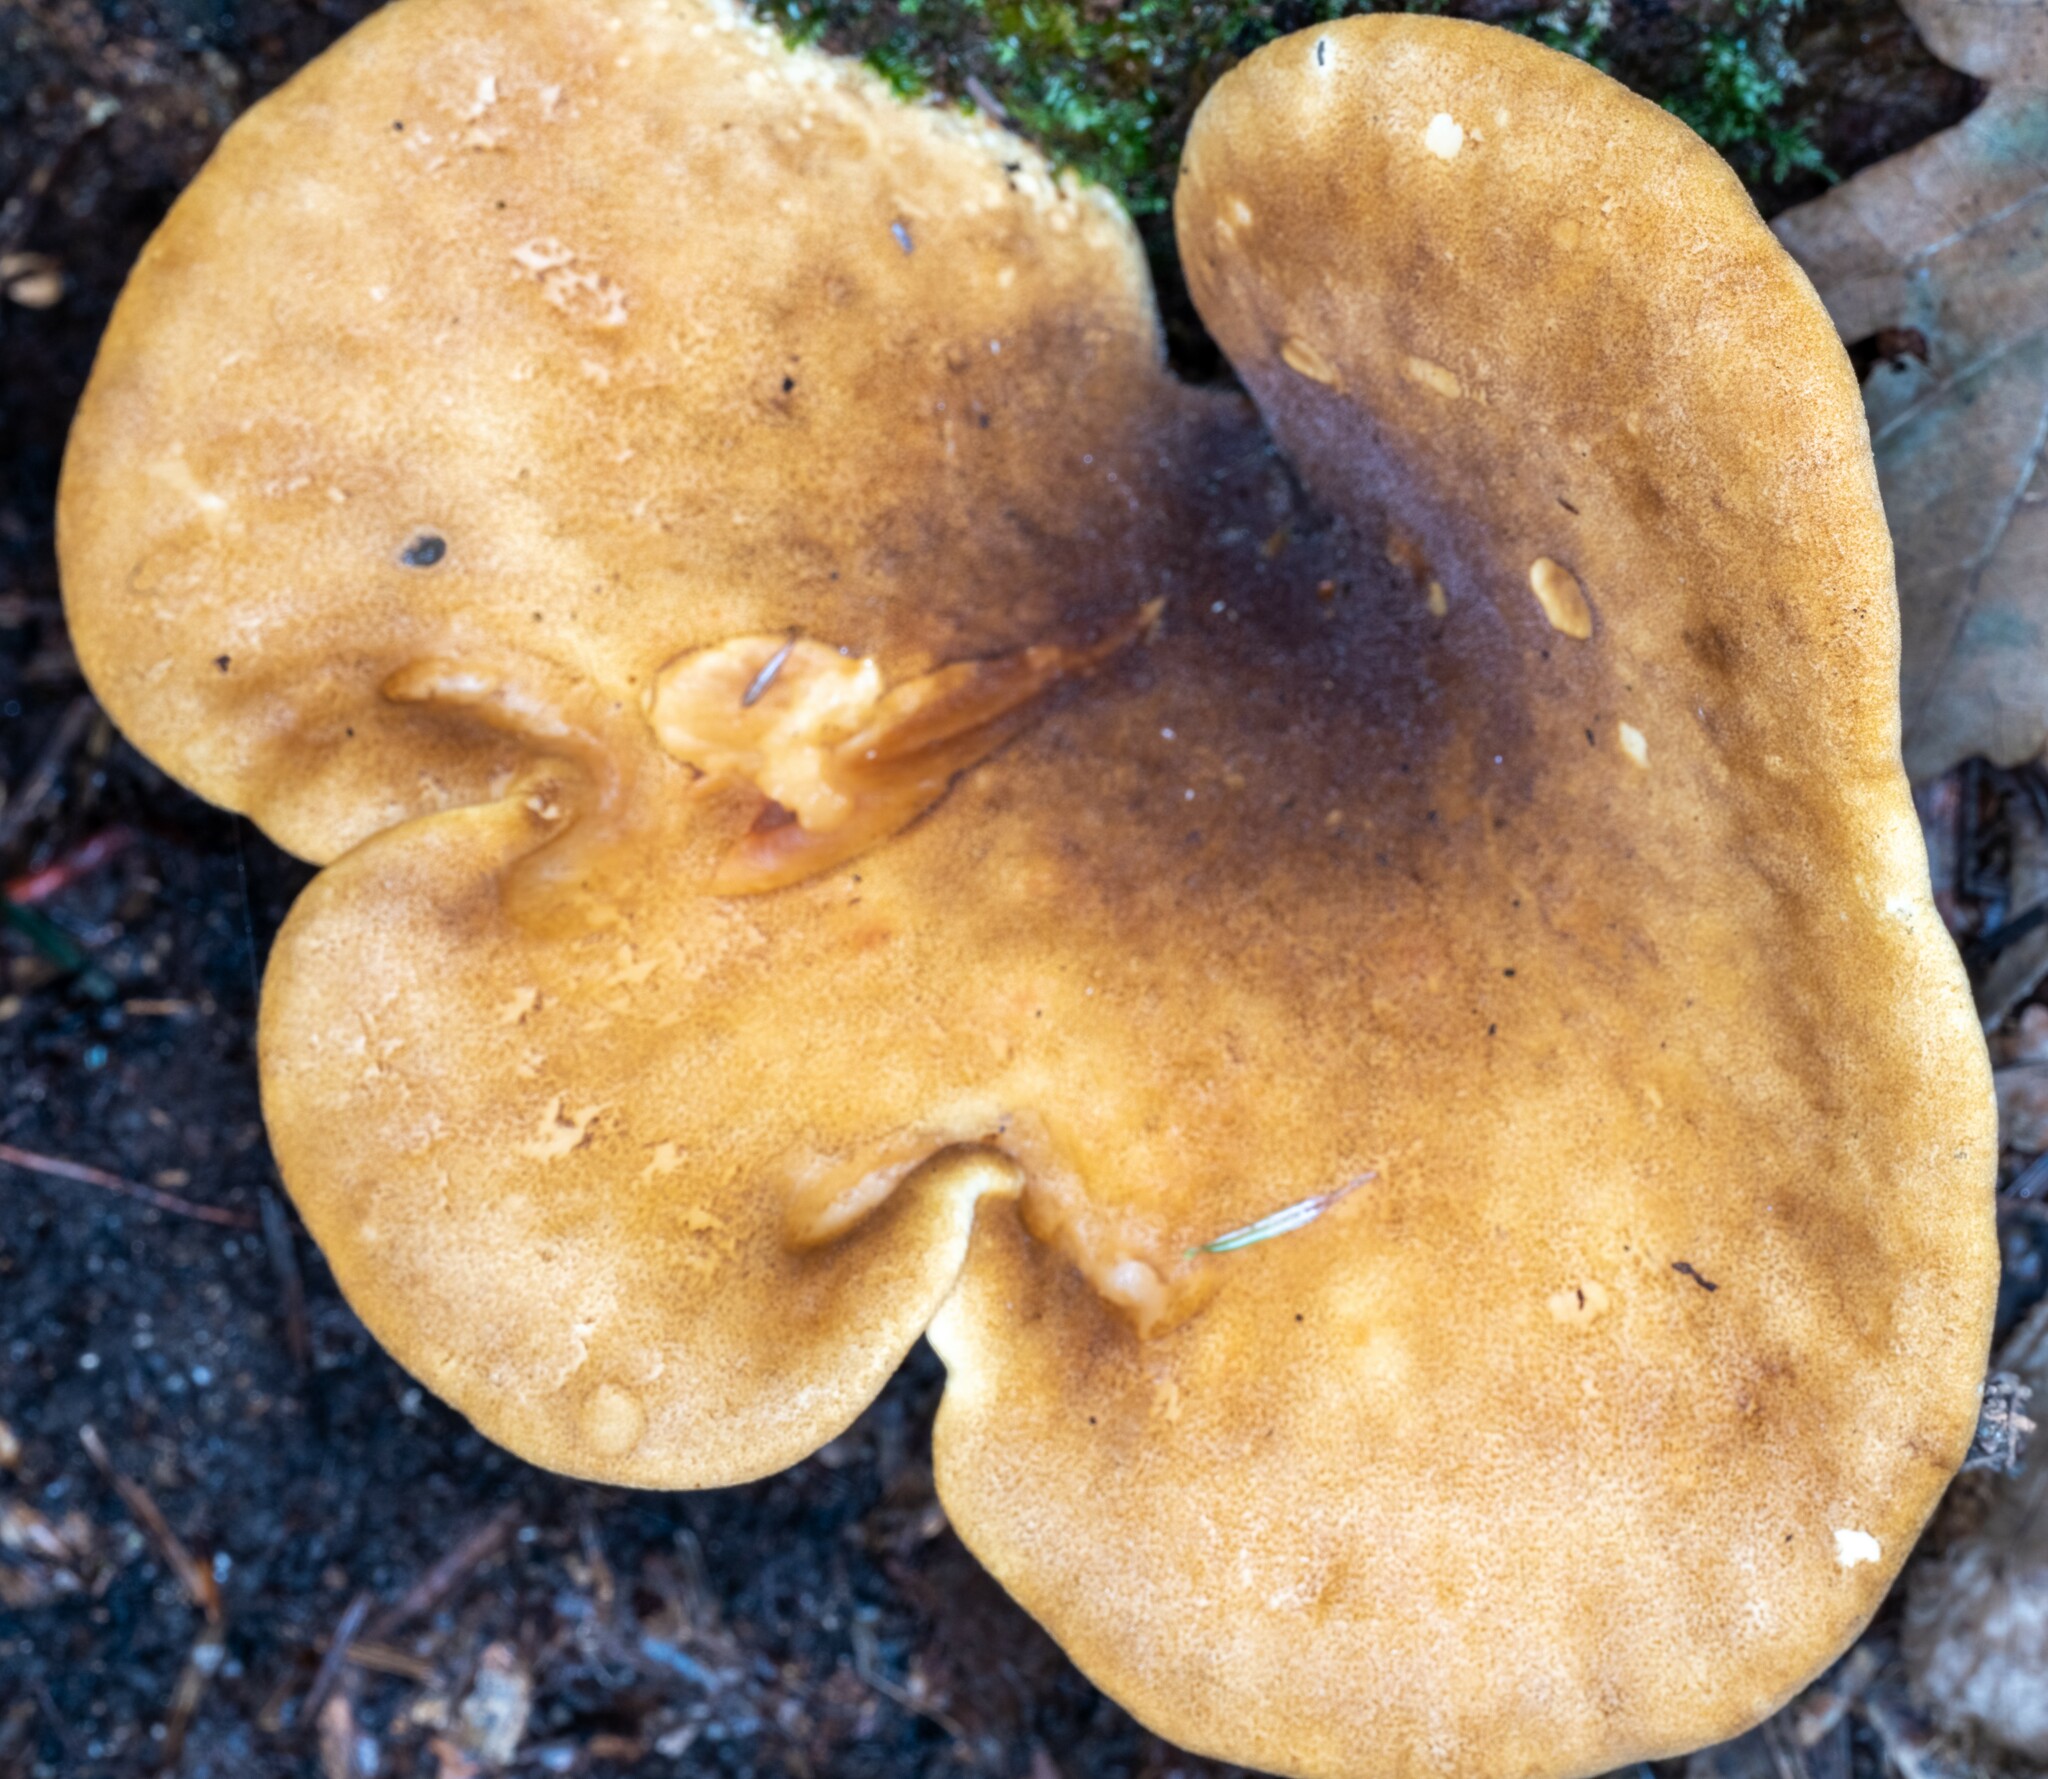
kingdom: Fungi
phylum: Basidiomycota
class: Agaricomycetes
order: Boletales
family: Tapinellaceae
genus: Tapinella
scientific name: Tapinella atrotomentosa
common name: Velvet rollrim
